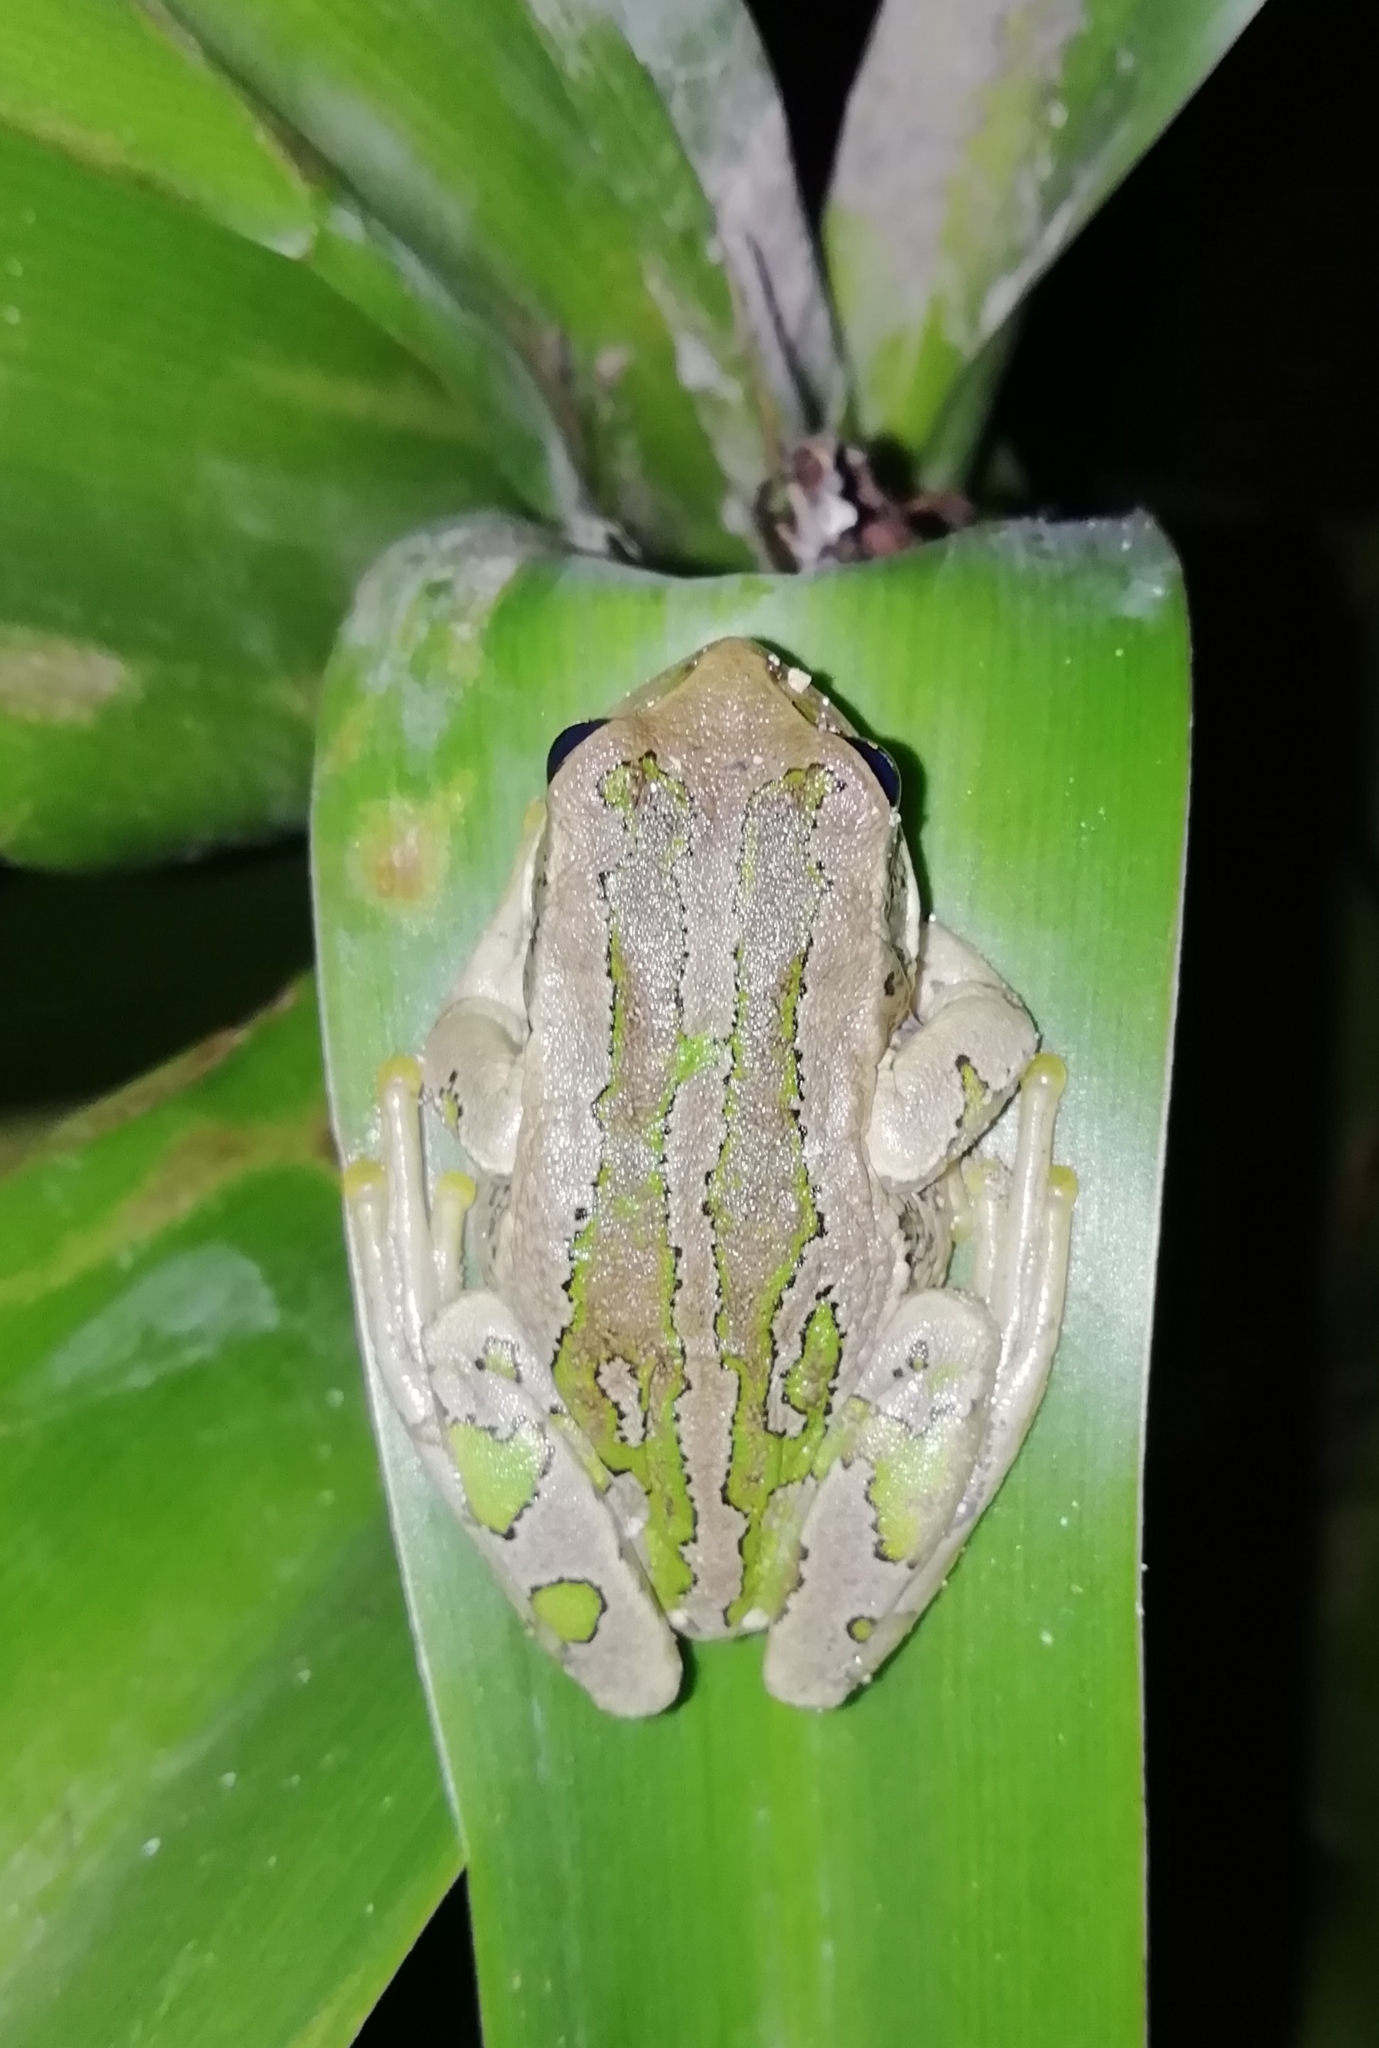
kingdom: Animalia
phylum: Chordata
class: Amphibia
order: Anura
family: Hemiphractidae
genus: Gastrotheca
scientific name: Gastrotheca cuencana
